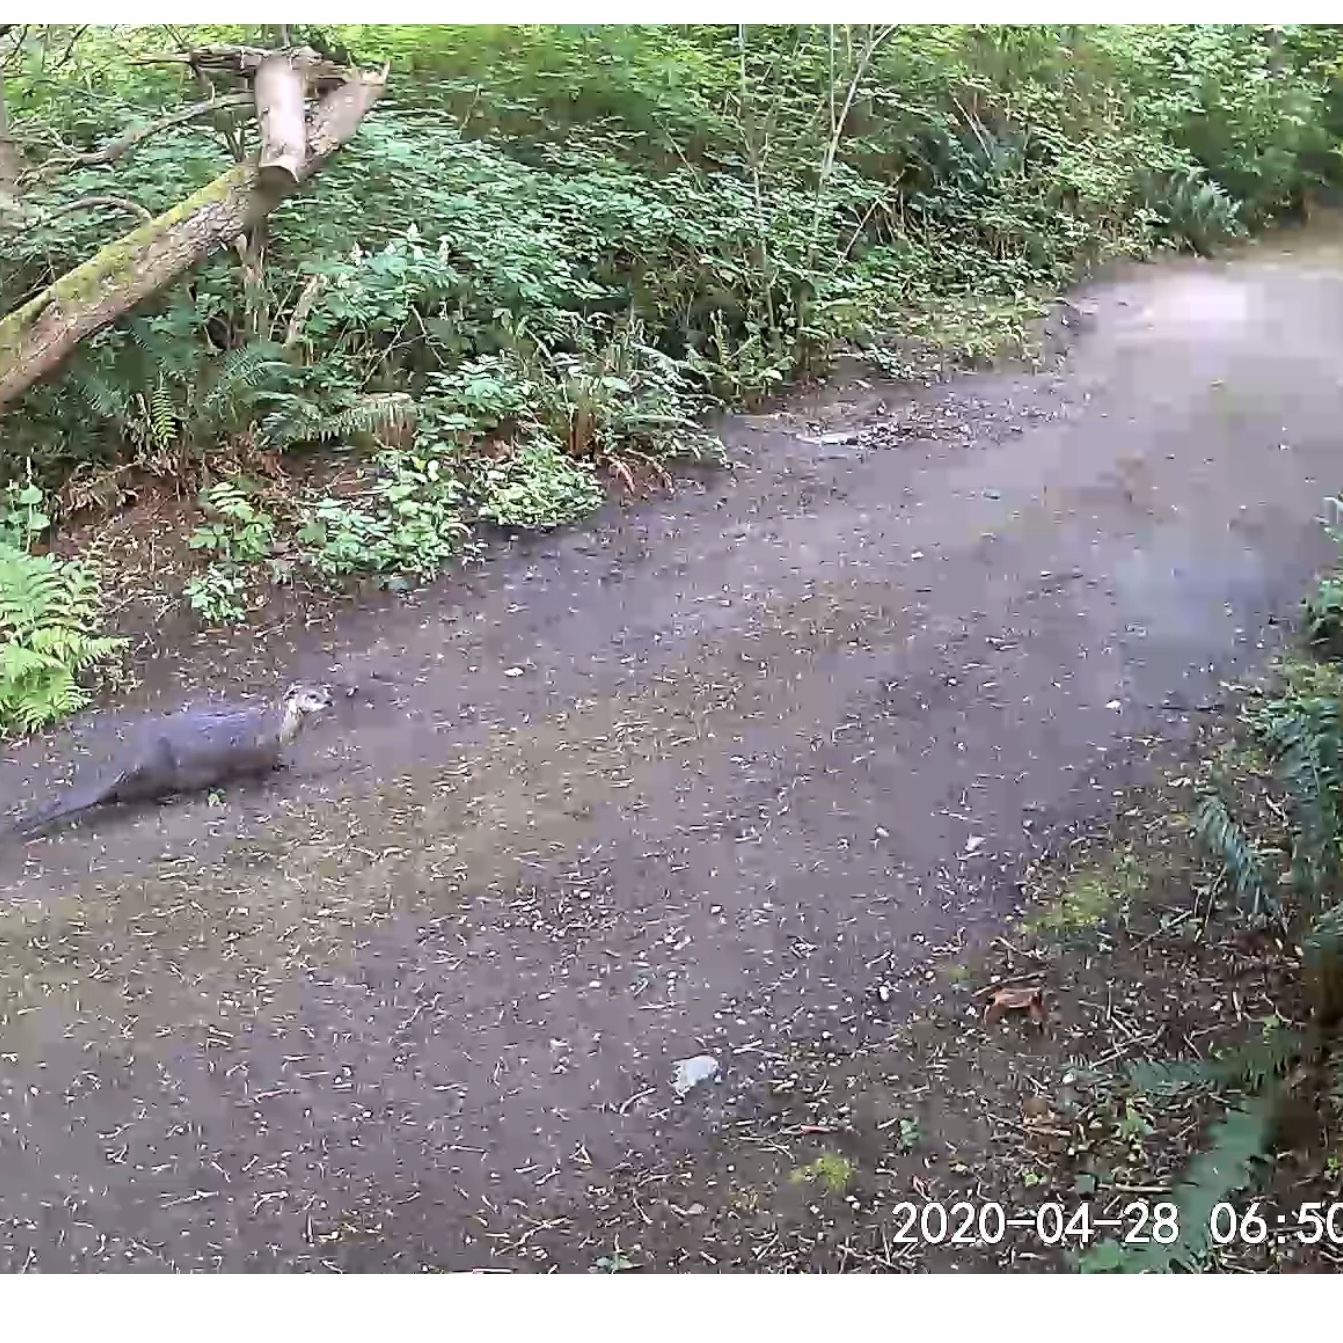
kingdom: Animalia
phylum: Chordata
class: Mammalia
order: Carnivora
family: Mustelidae
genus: Lontra
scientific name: Lontra canadensis
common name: North american river otter
